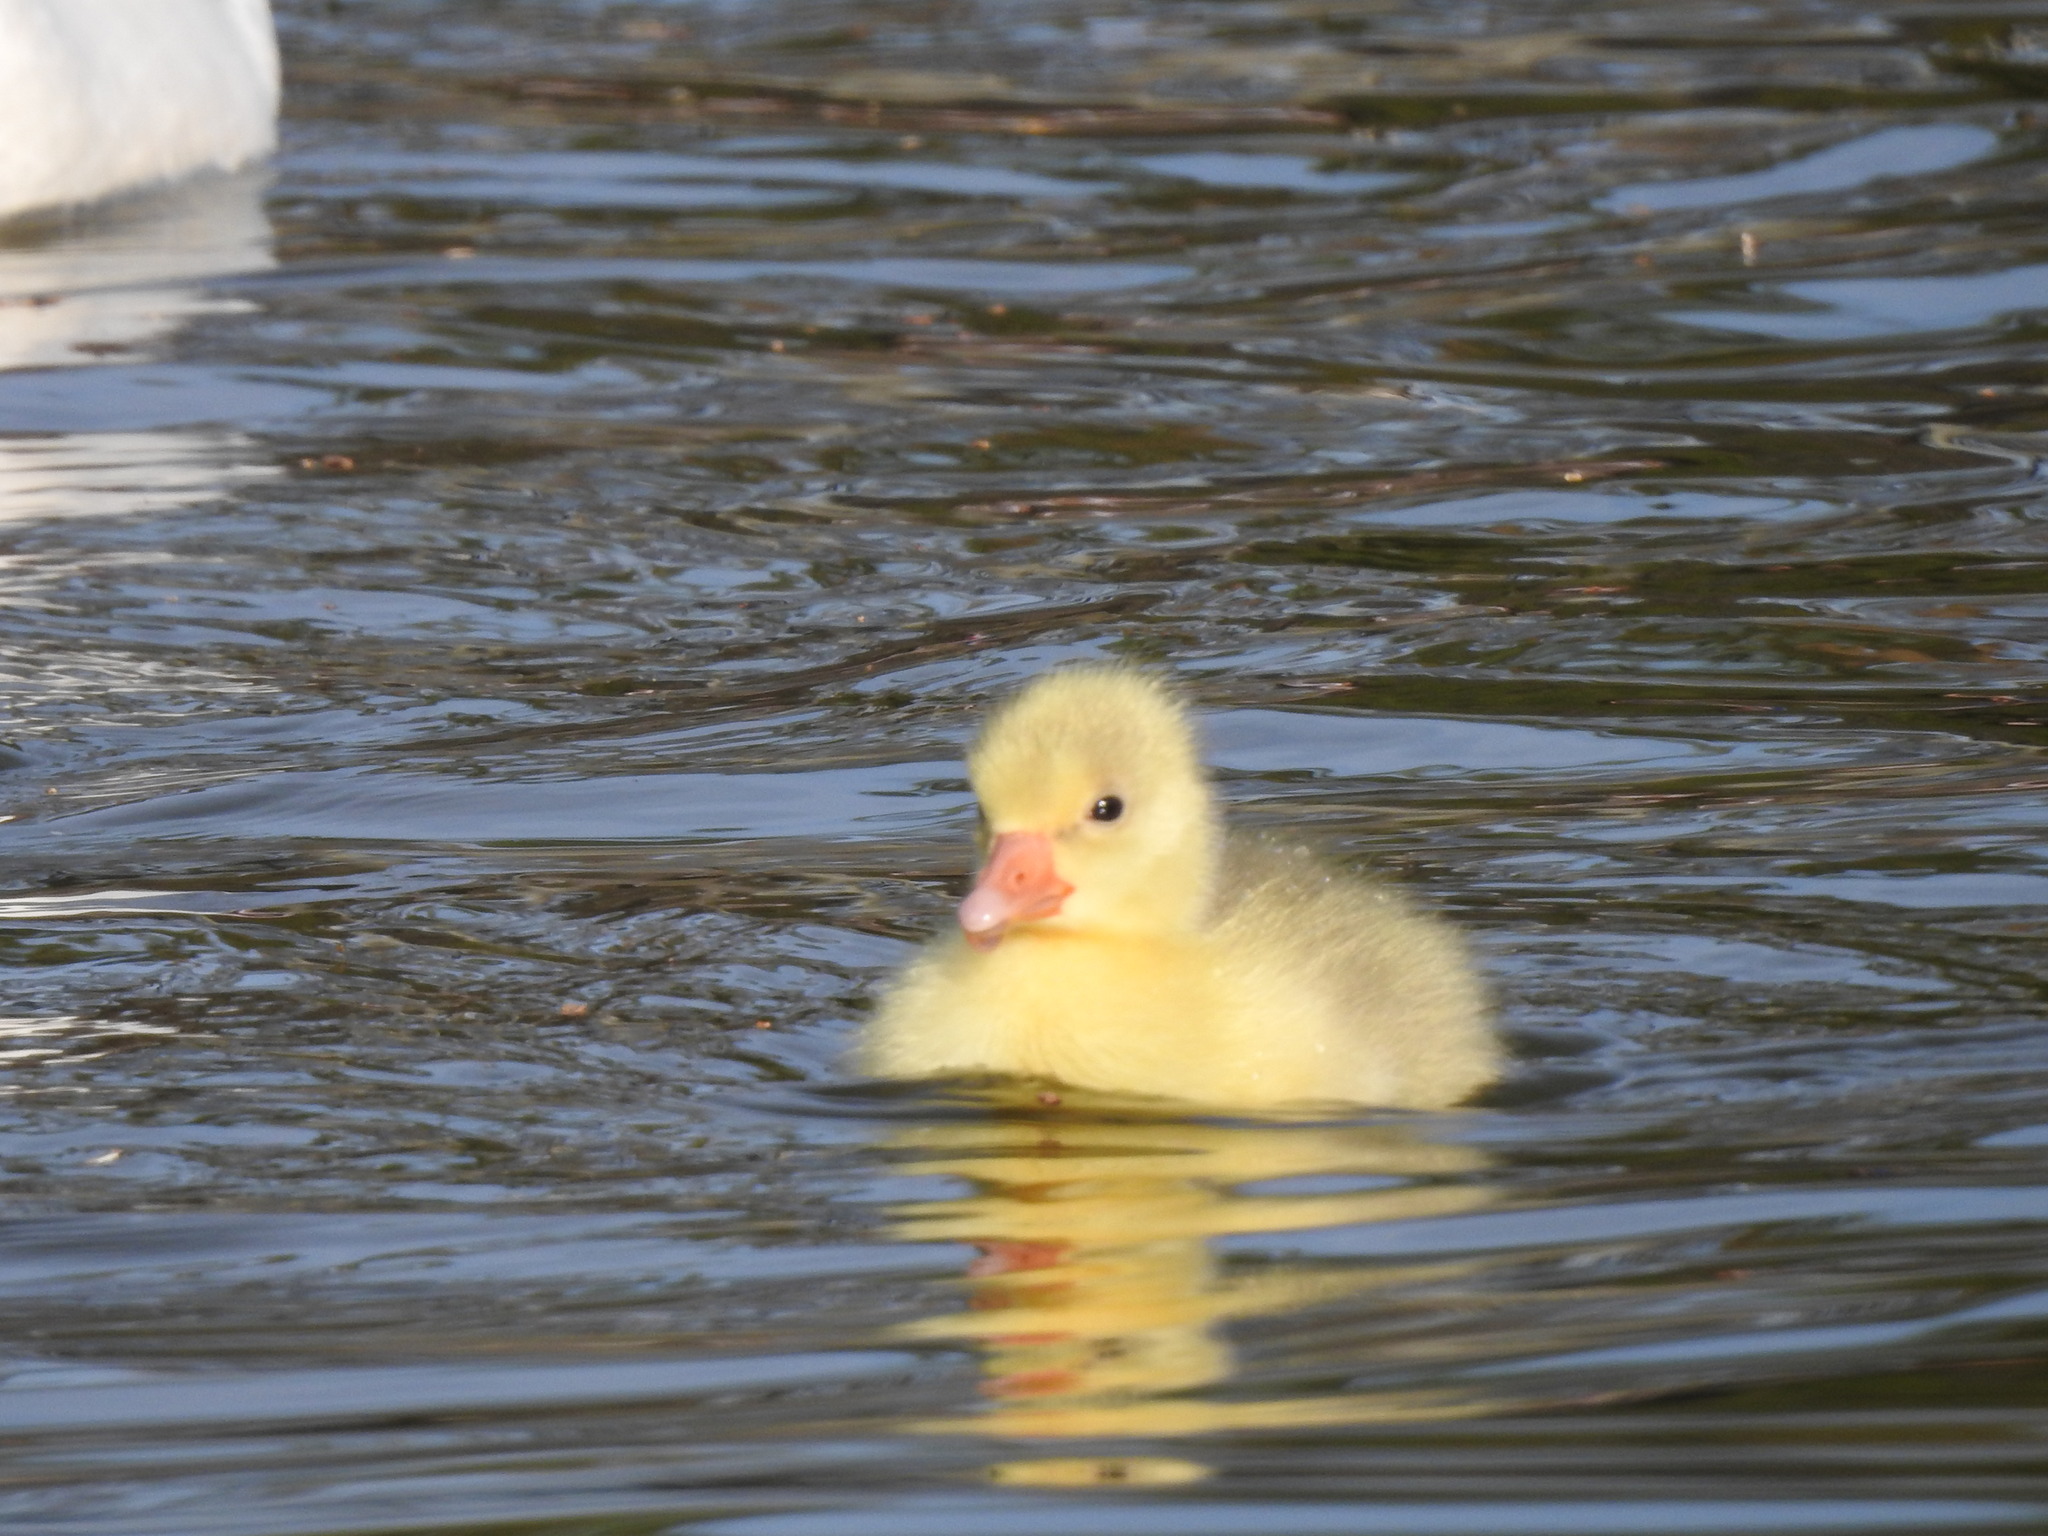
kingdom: Animalia
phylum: Chordata
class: Aves
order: Anseriformes
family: Anatidae
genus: Anser
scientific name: Anser anser
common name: Greylag goose
